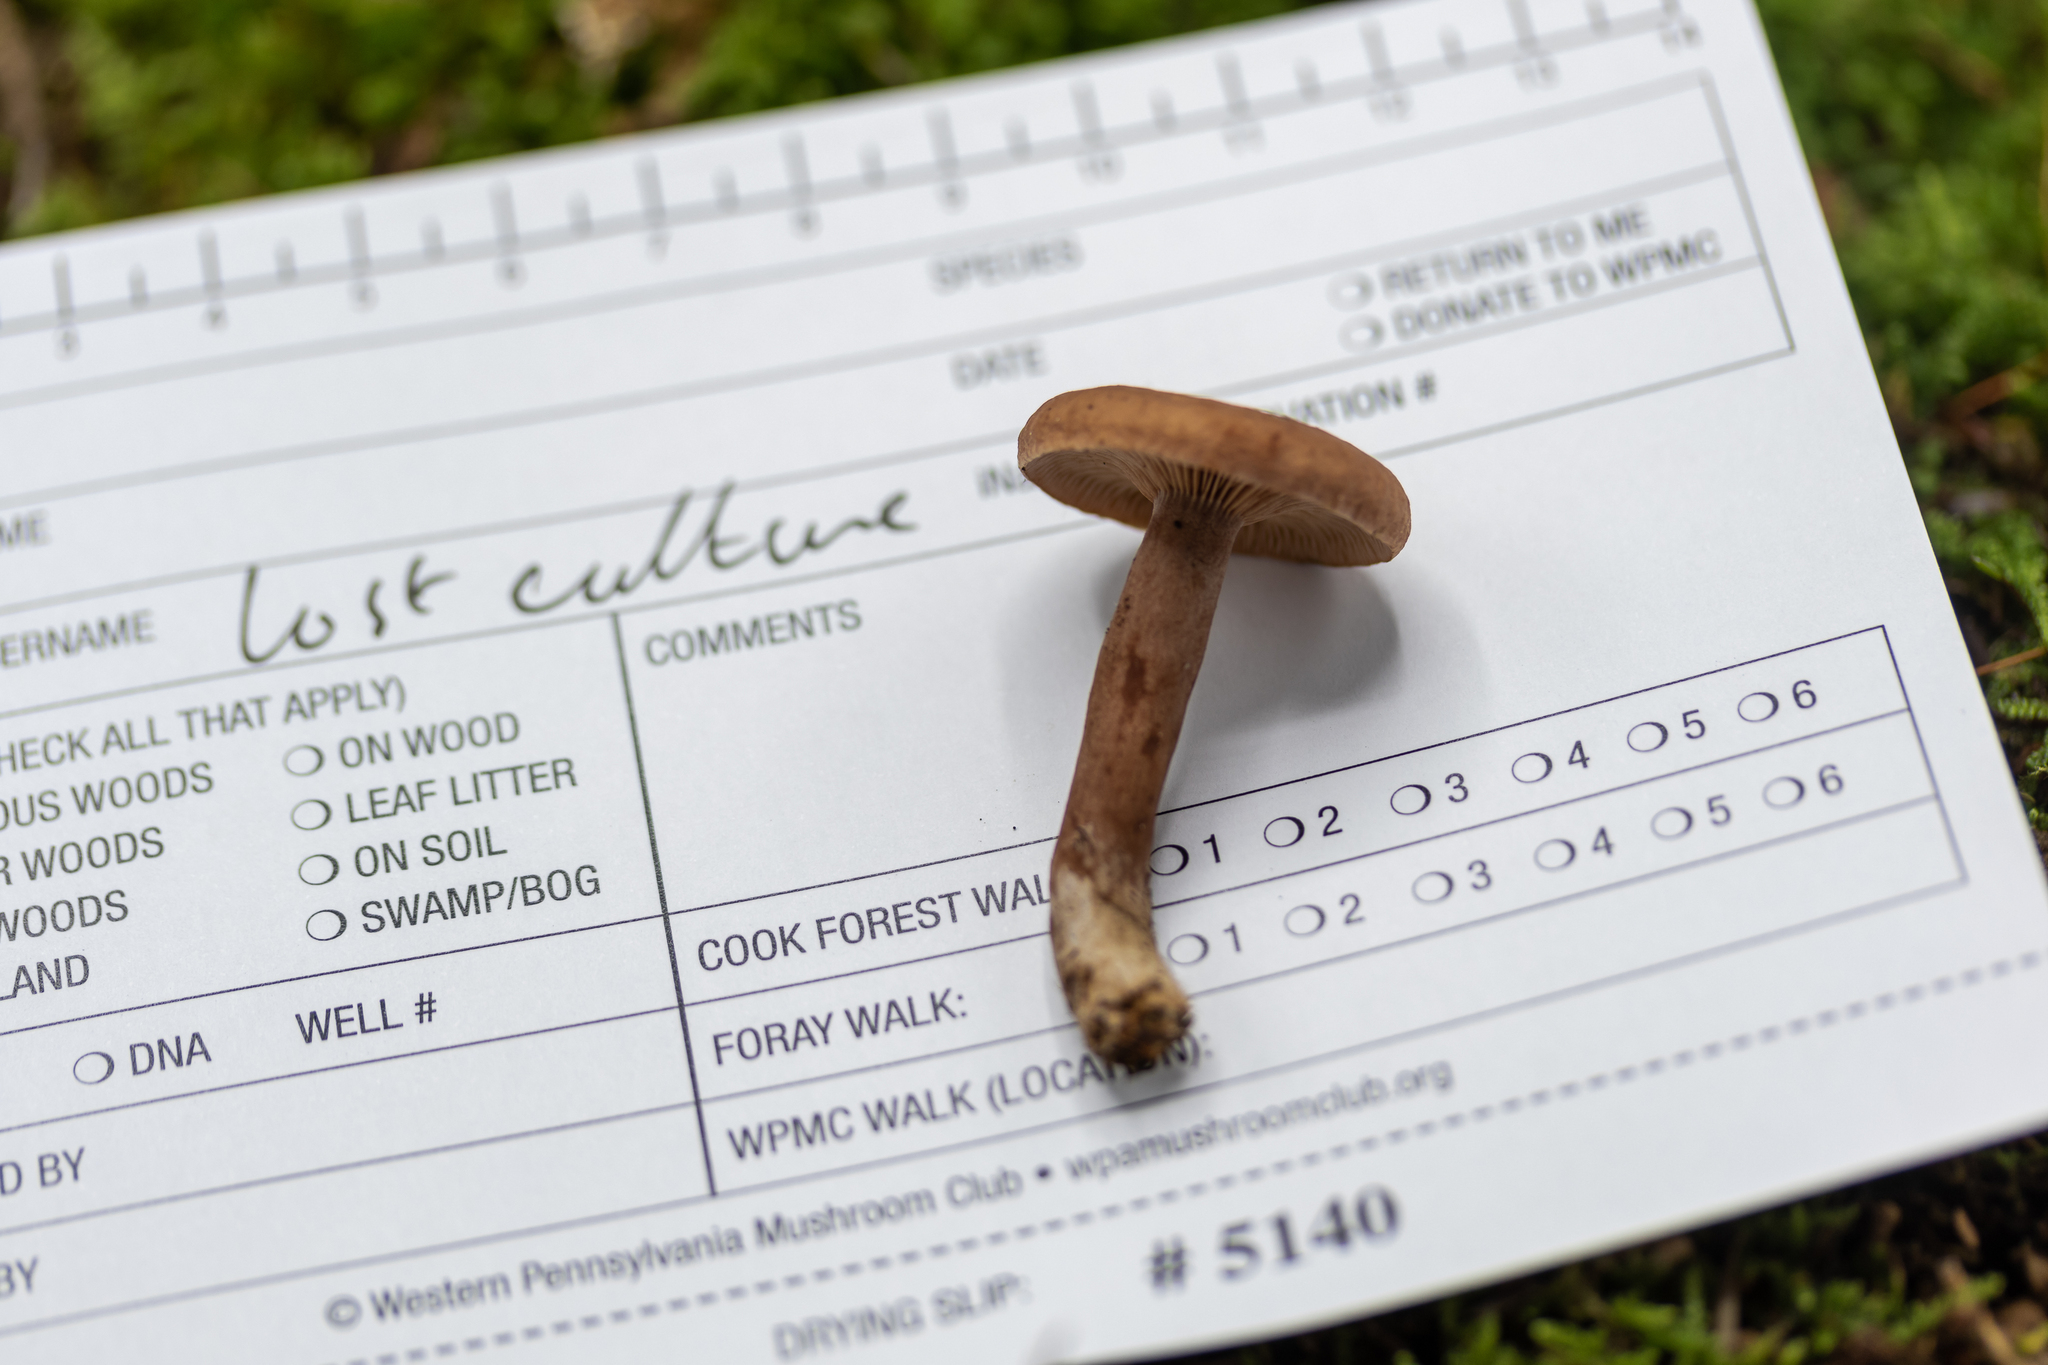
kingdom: Fungi
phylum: Basidiomycota
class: Agaricomycetes
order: Russulales
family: Russulaceae
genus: Lactarius
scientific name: Lactarius camphoratus
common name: Curry milkcap
